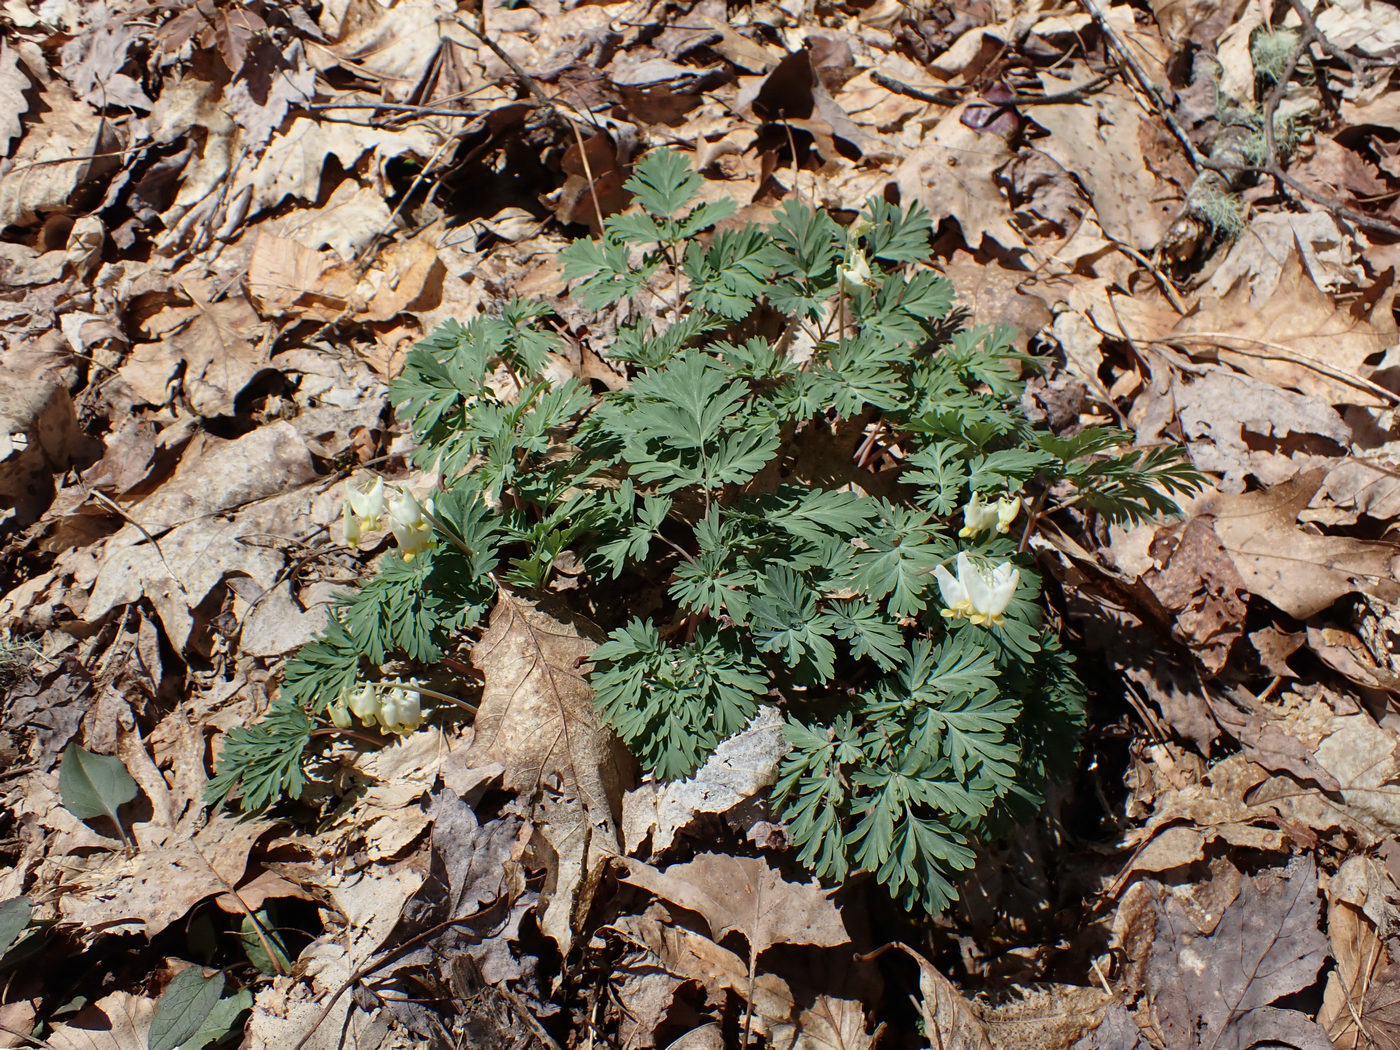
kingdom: Plantae
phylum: Tracheophyta
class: Magnoliopsida
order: Ranunculales
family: Papaveraceae
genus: Dicentra
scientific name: Dicentra cucullaria
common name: Dutchman's breeches
